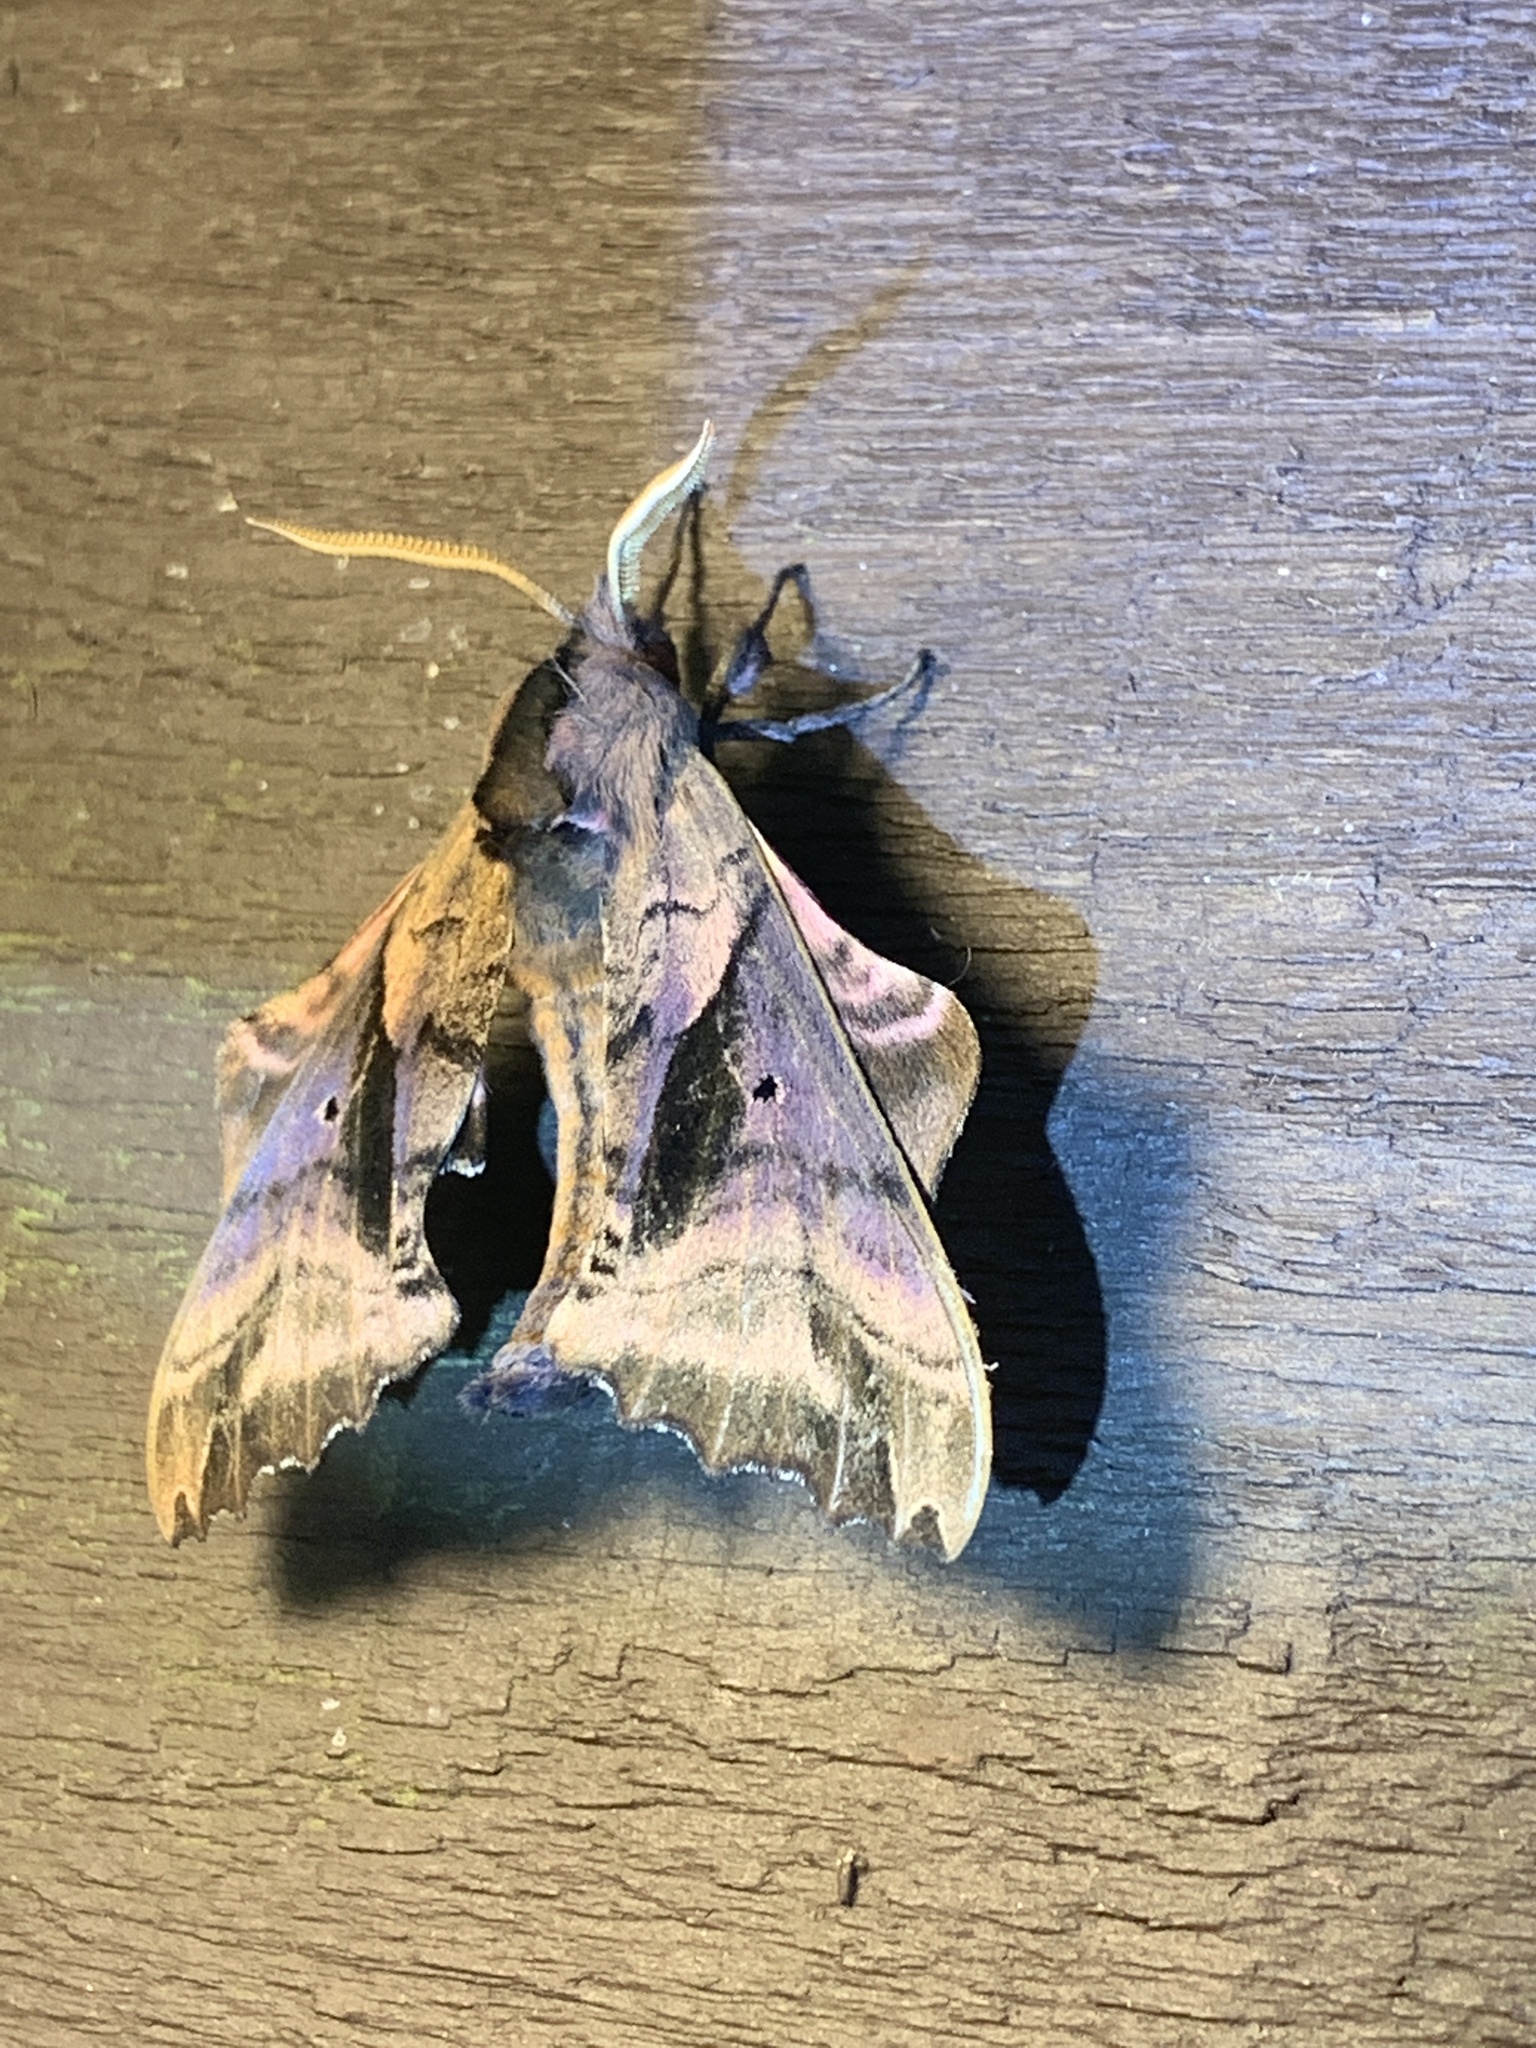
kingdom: Animalia
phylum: Arthropoda
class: Insecta
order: Lepidoptera
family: Sphingidae
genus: Paonias
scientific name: Paonias excaecata
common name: Blind-eyed sphinx
